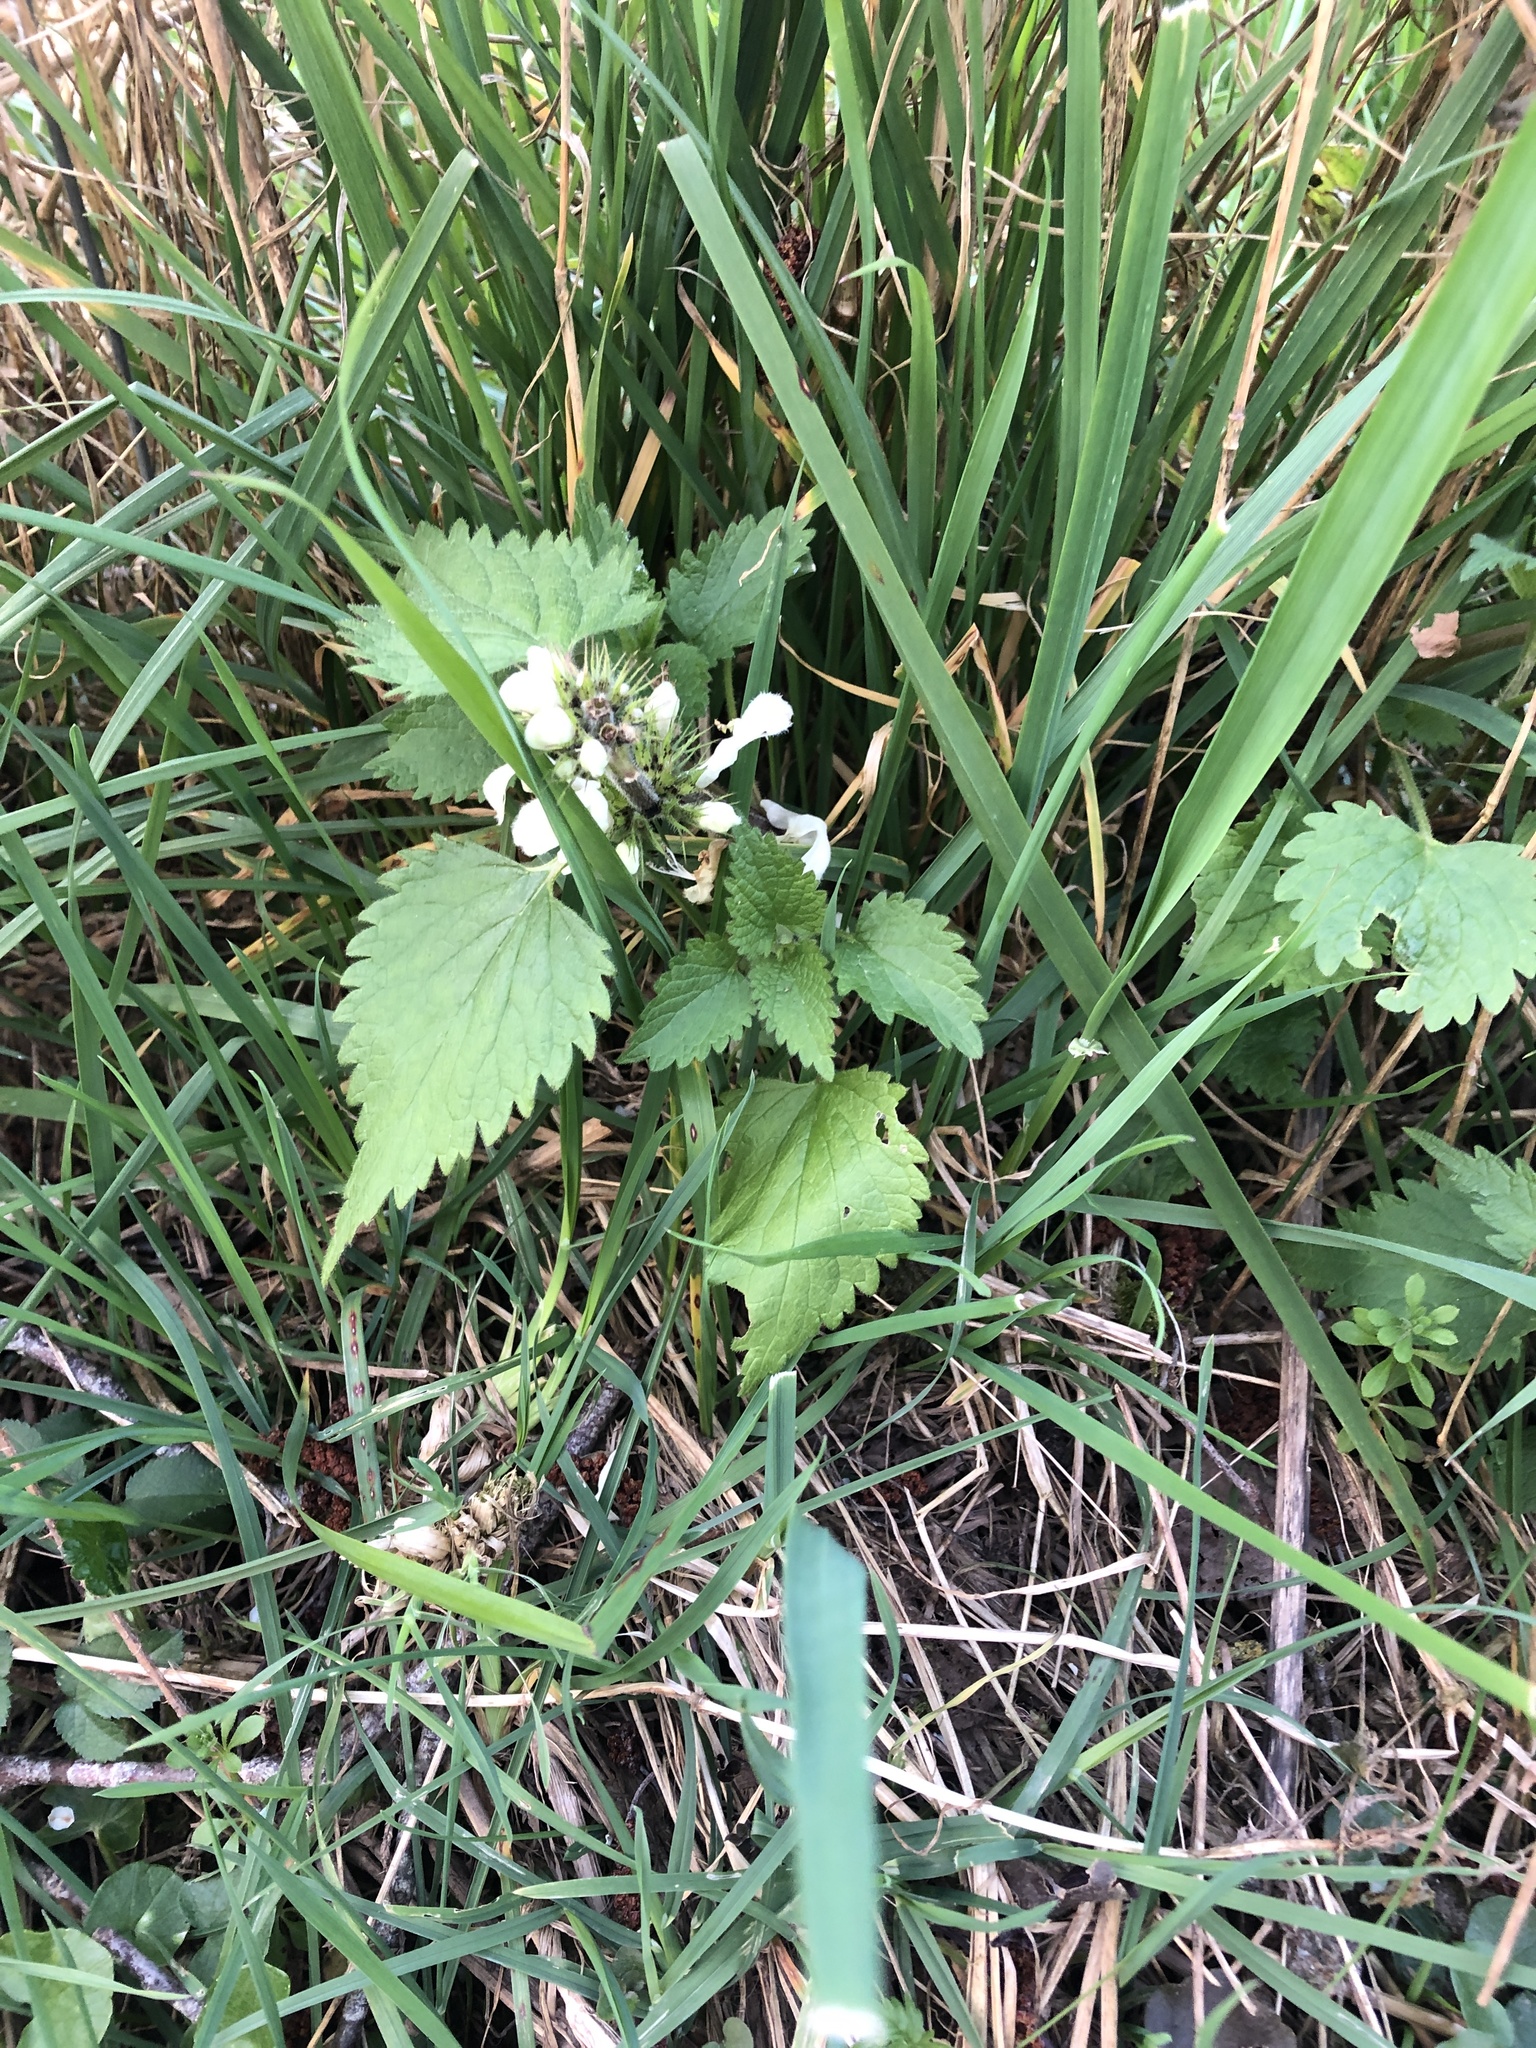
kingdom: Plantae
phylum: Tracheophyta
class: Magnoliopsida
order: Lamiales
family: Lamiaceae
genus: Lamium
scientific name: Lamium album
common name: White dead-nettle
